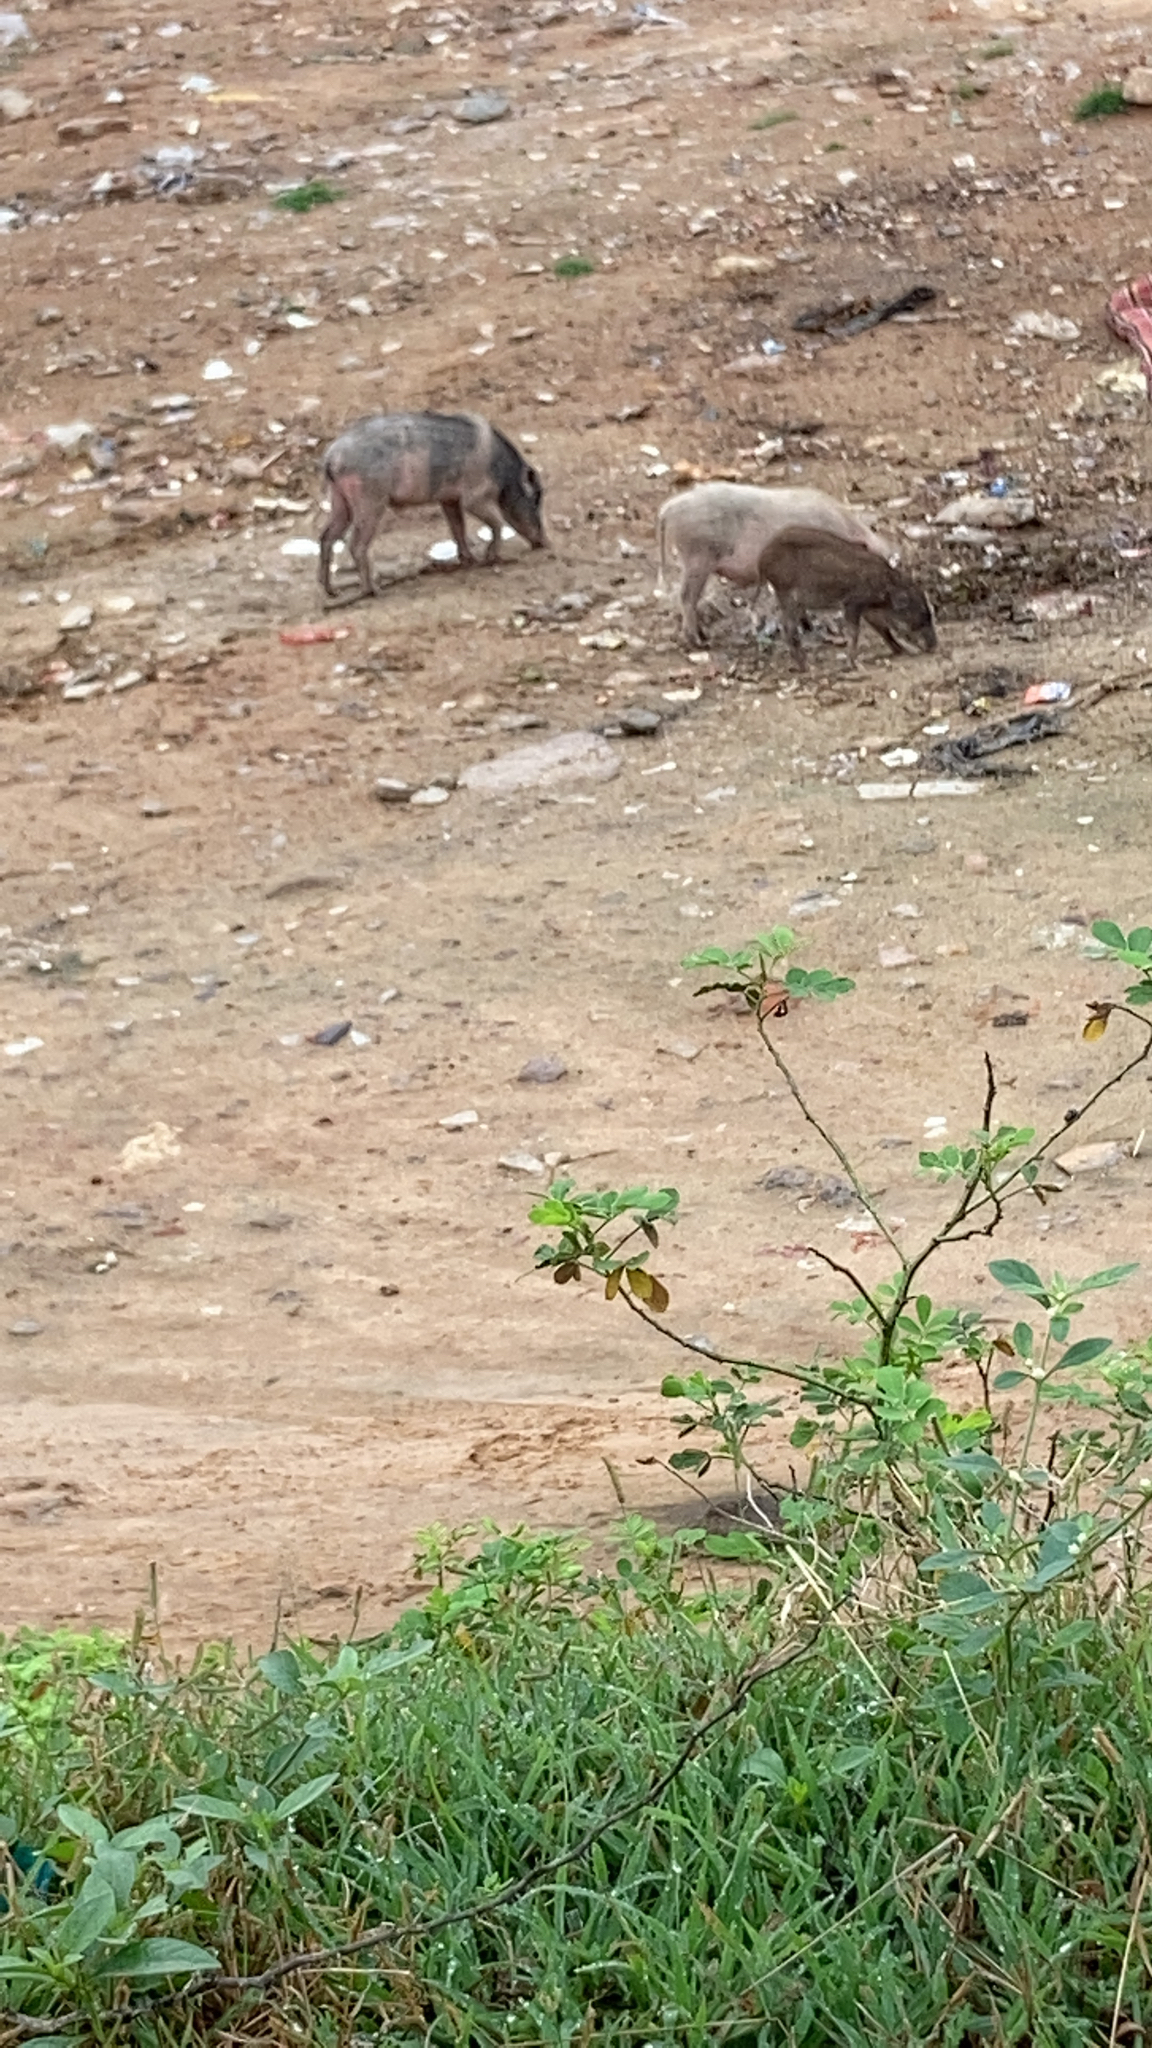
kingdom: Animalia
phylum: Chordata
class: Mammalia
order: Artiodactyla
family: Suidae
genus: Sus
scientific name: Sus scrofa
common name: Wild boar
